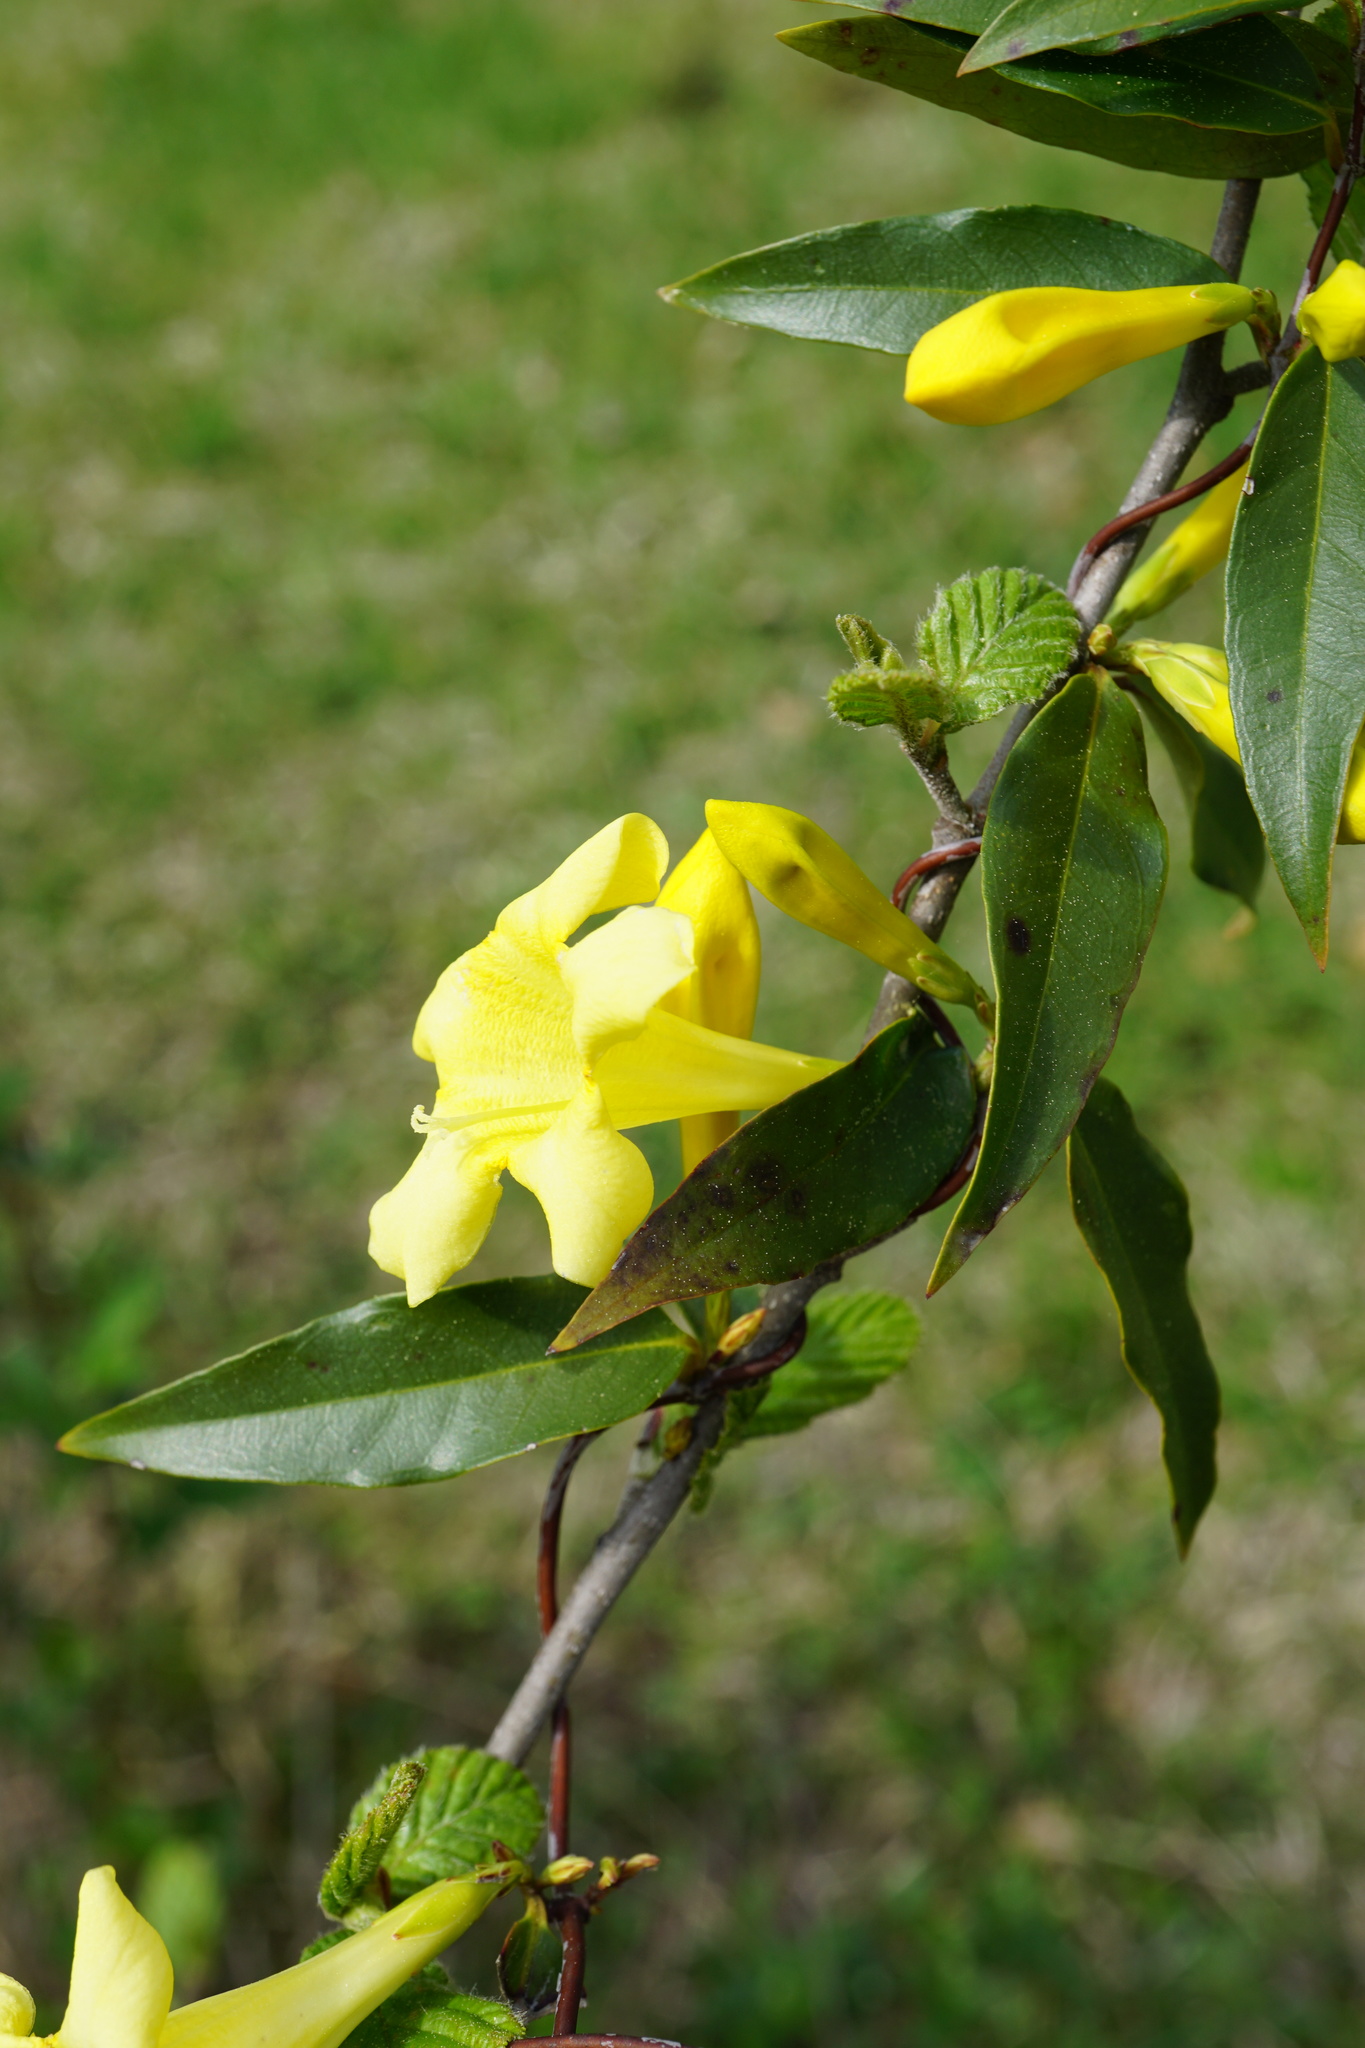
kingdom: Plantae
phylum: Tracheophyta
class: Magnoliopsida
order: Gentianales
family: Gelsemiaceae
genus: Gelsemium
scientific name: Gelsemium sempervirens
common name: Carolina-jasmine
